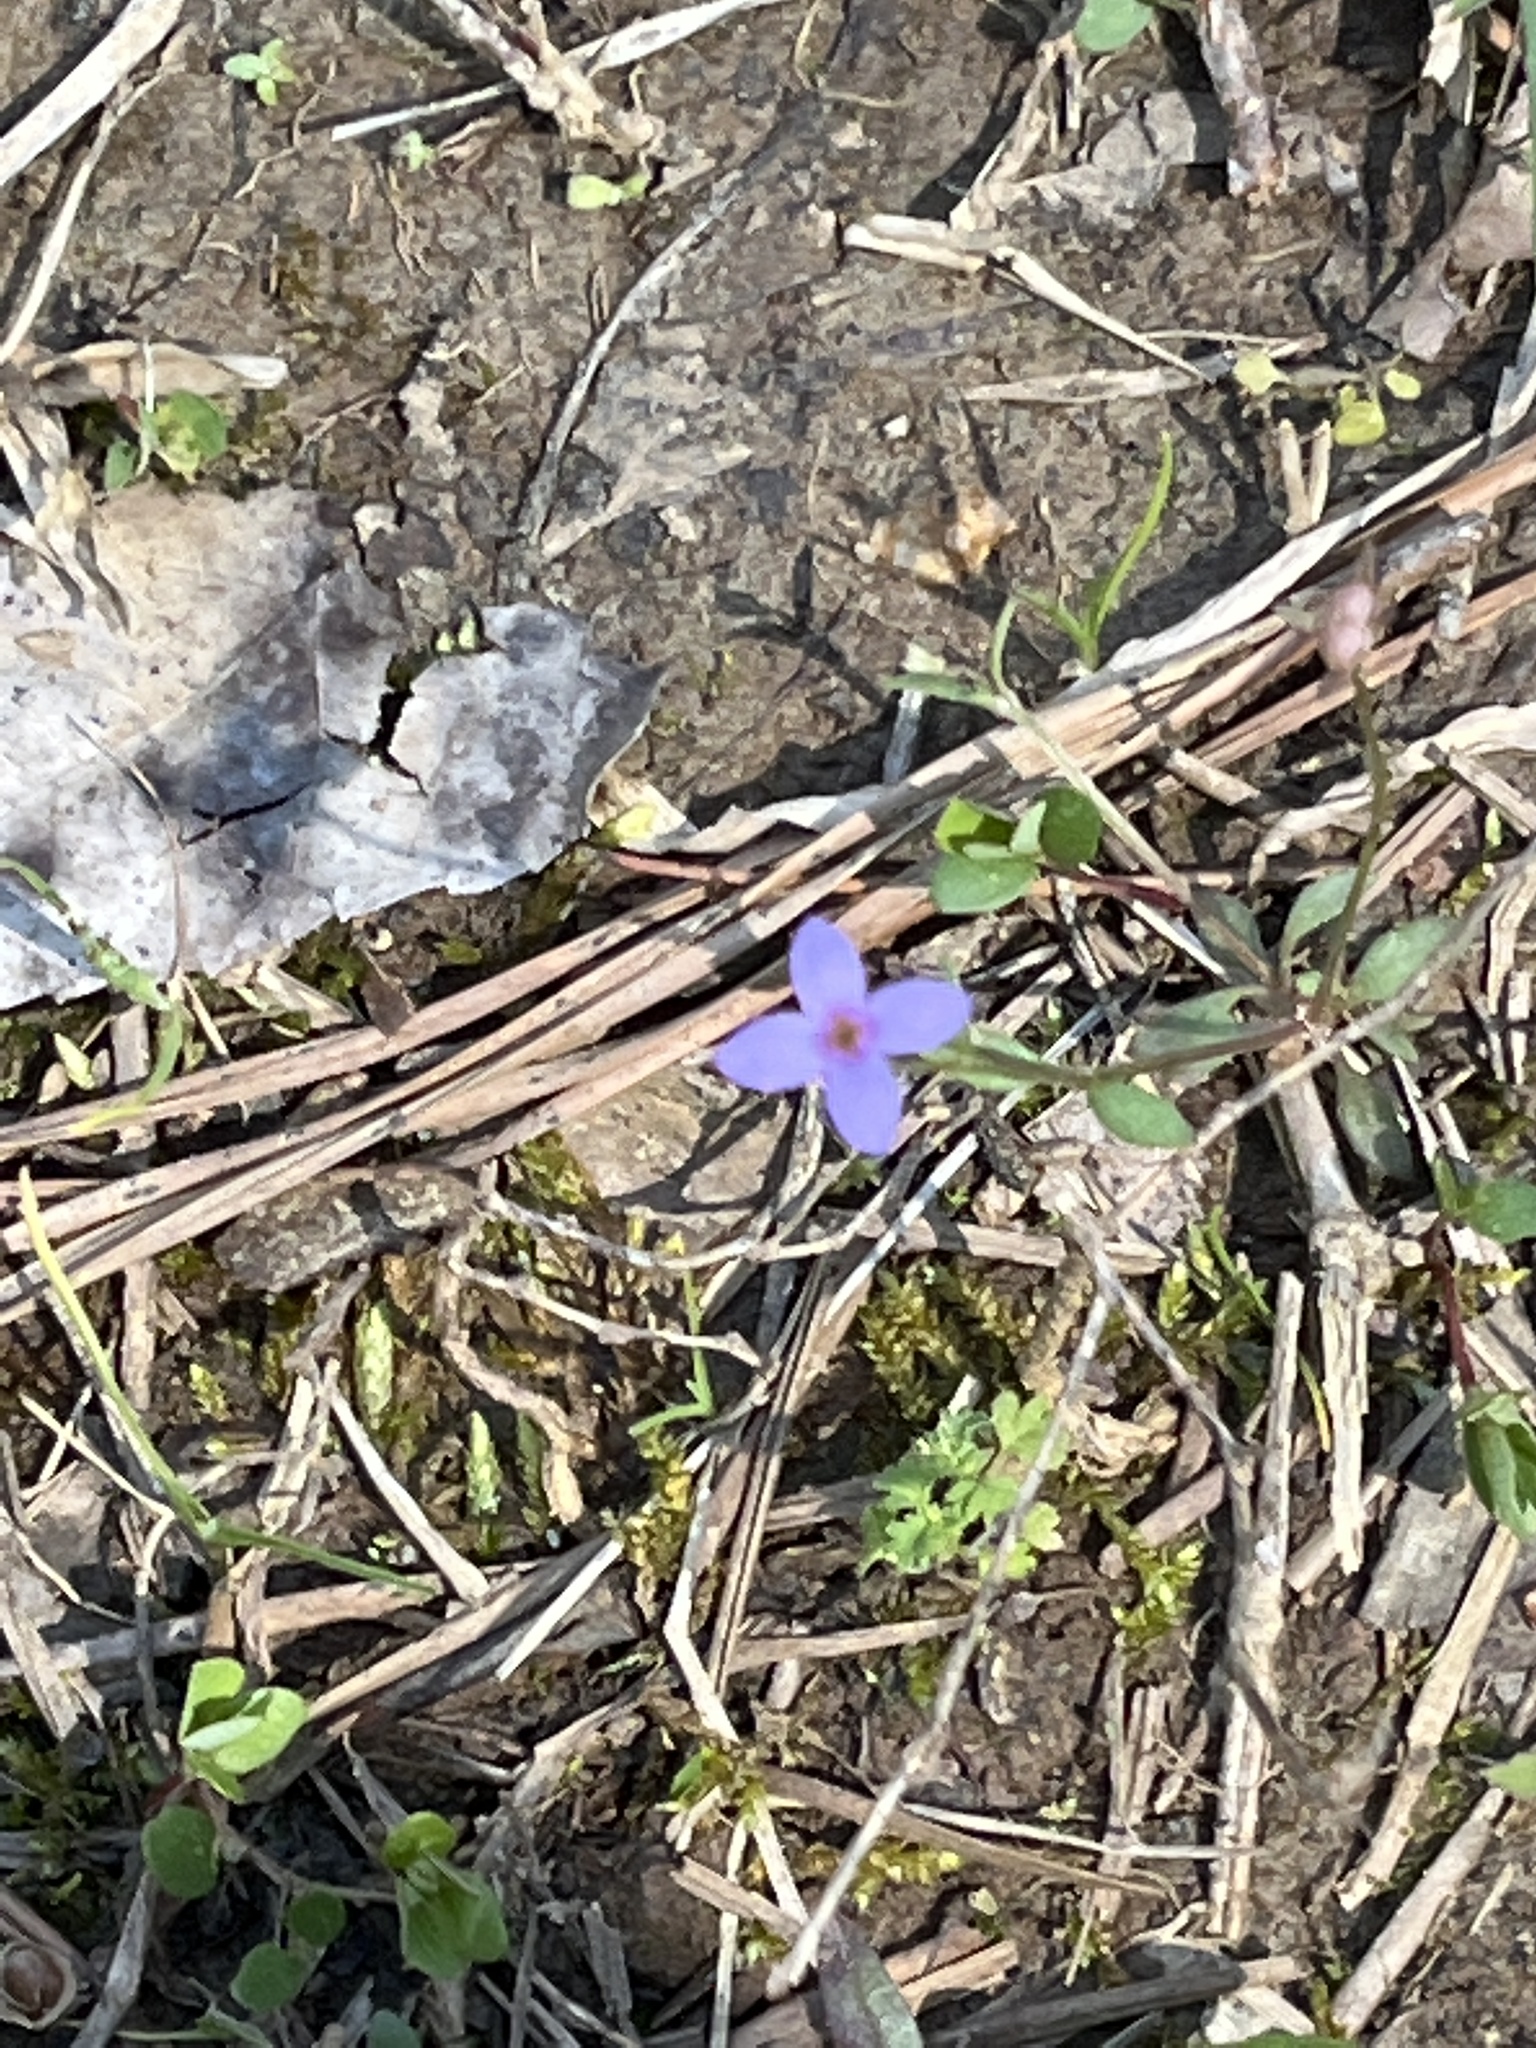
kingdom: Plantae
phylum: Tracheophyta
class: Magnoliopsida
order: Gentianales
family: Rubiaceae
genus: Houstonia
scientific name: Houstonia pusilla
